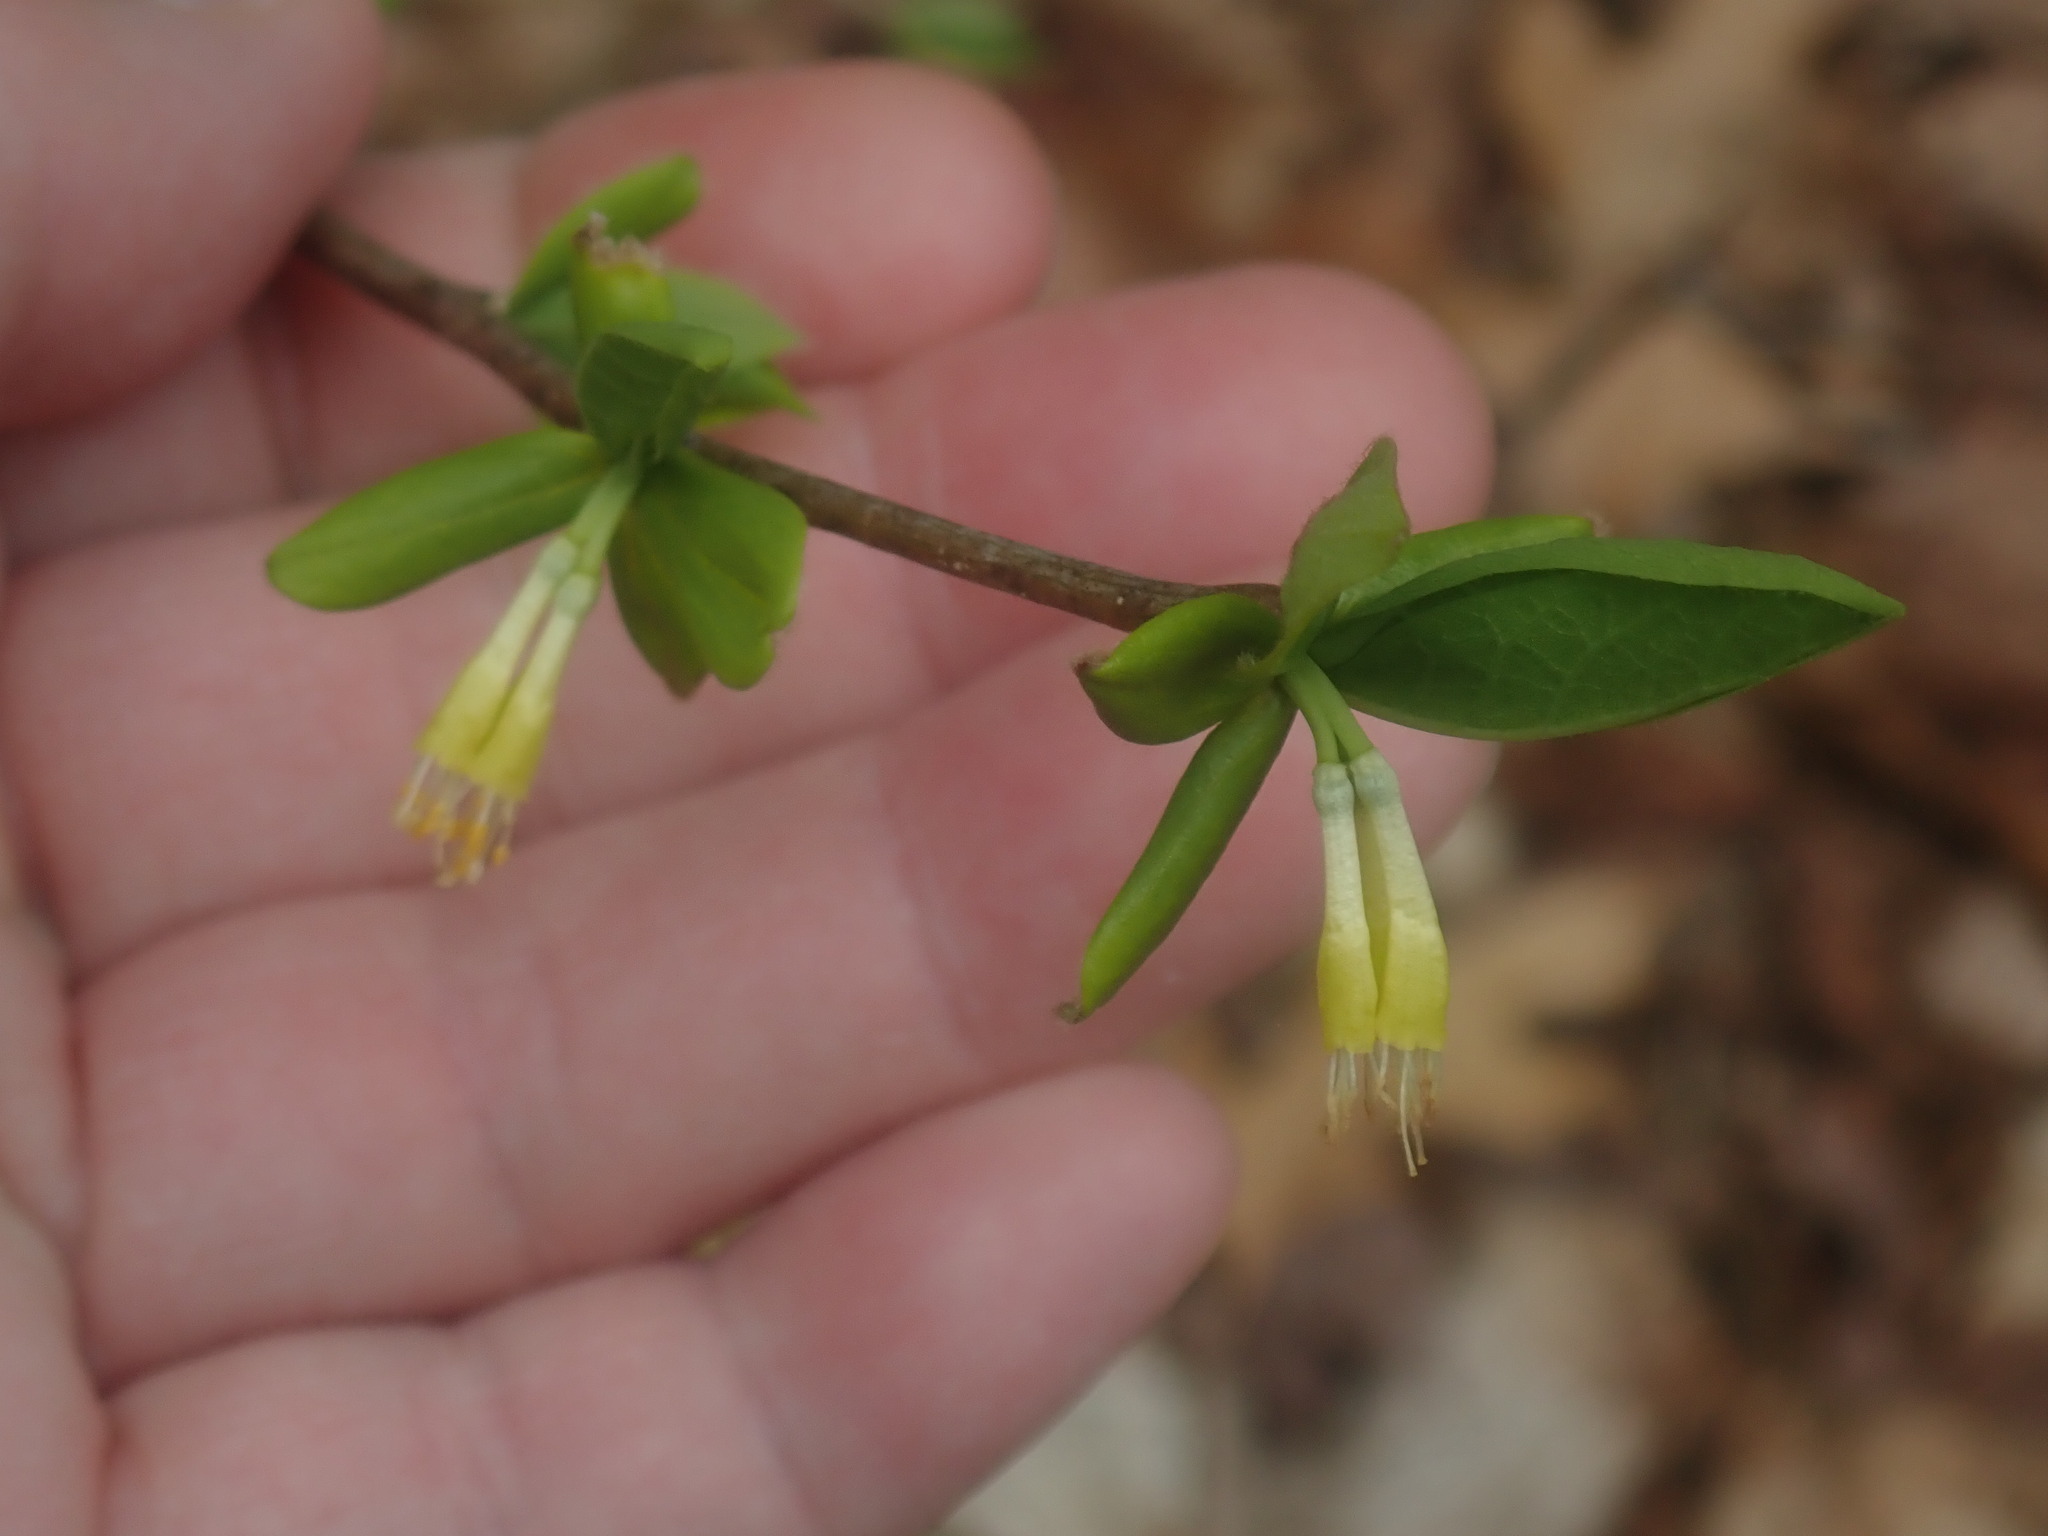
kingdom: Plantae
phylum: Tracheophyta
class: Magnoliopsida
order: Malvales
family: Thymelaeaceae
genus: Dirca
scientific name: Dirca palustris
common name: Leatherwood
